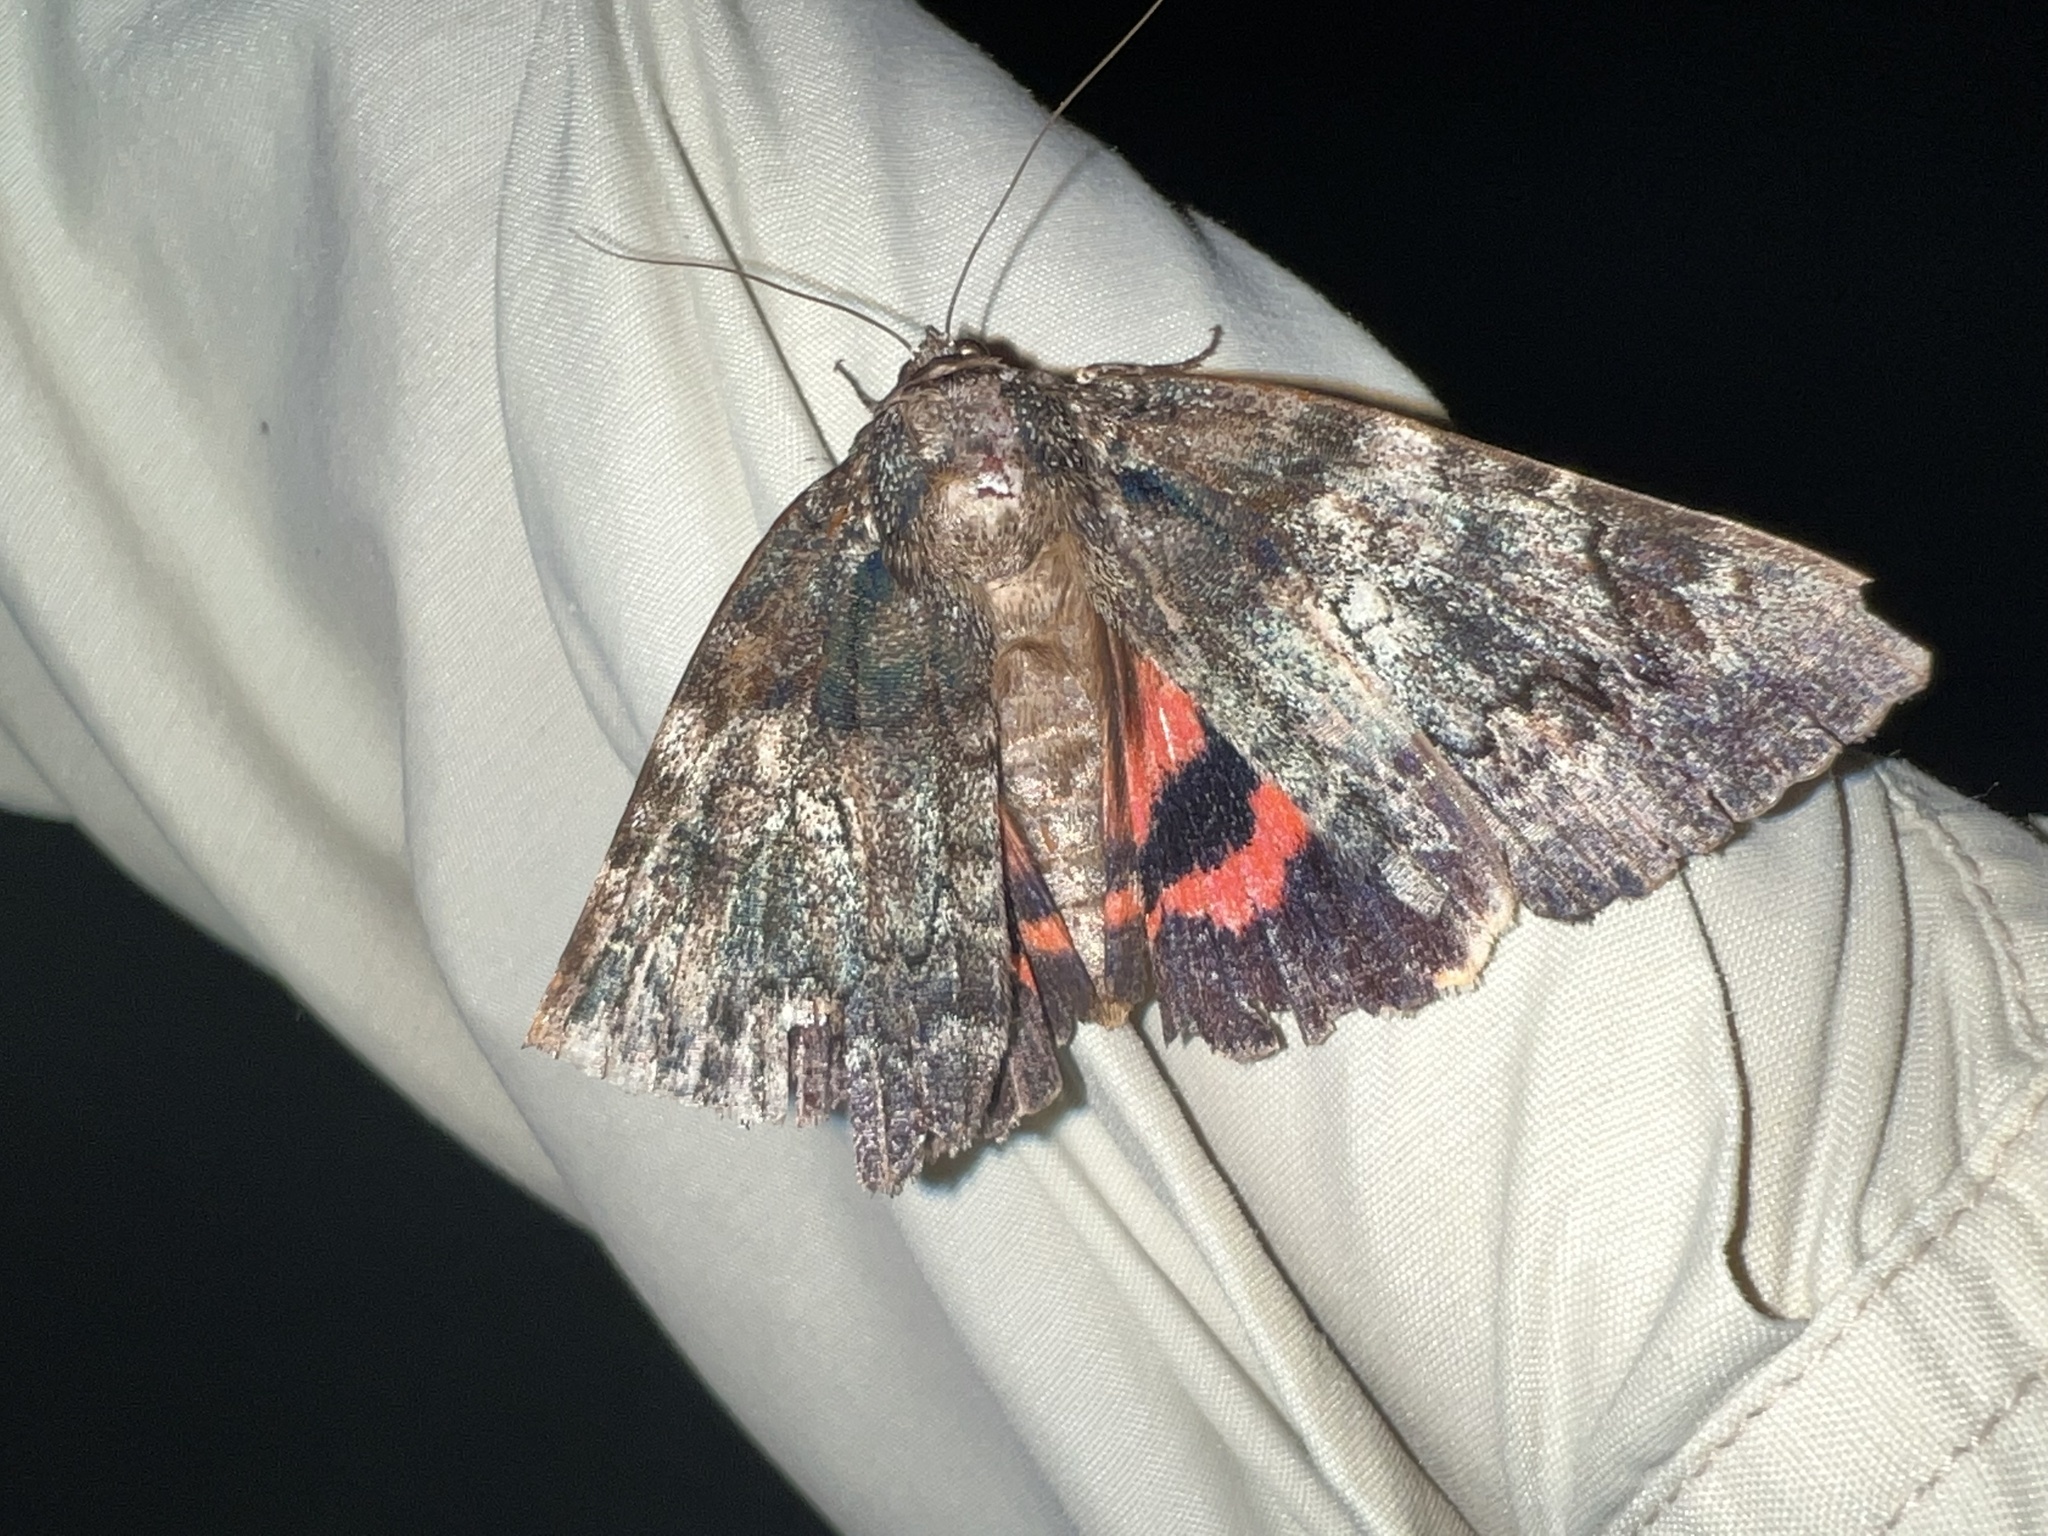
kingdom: Animalia
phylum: Arthropoda
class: Insecta
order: Lepidoptera
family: Erebidae
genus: Catocala
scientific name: Catocala ilia
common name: Ilia underwing
